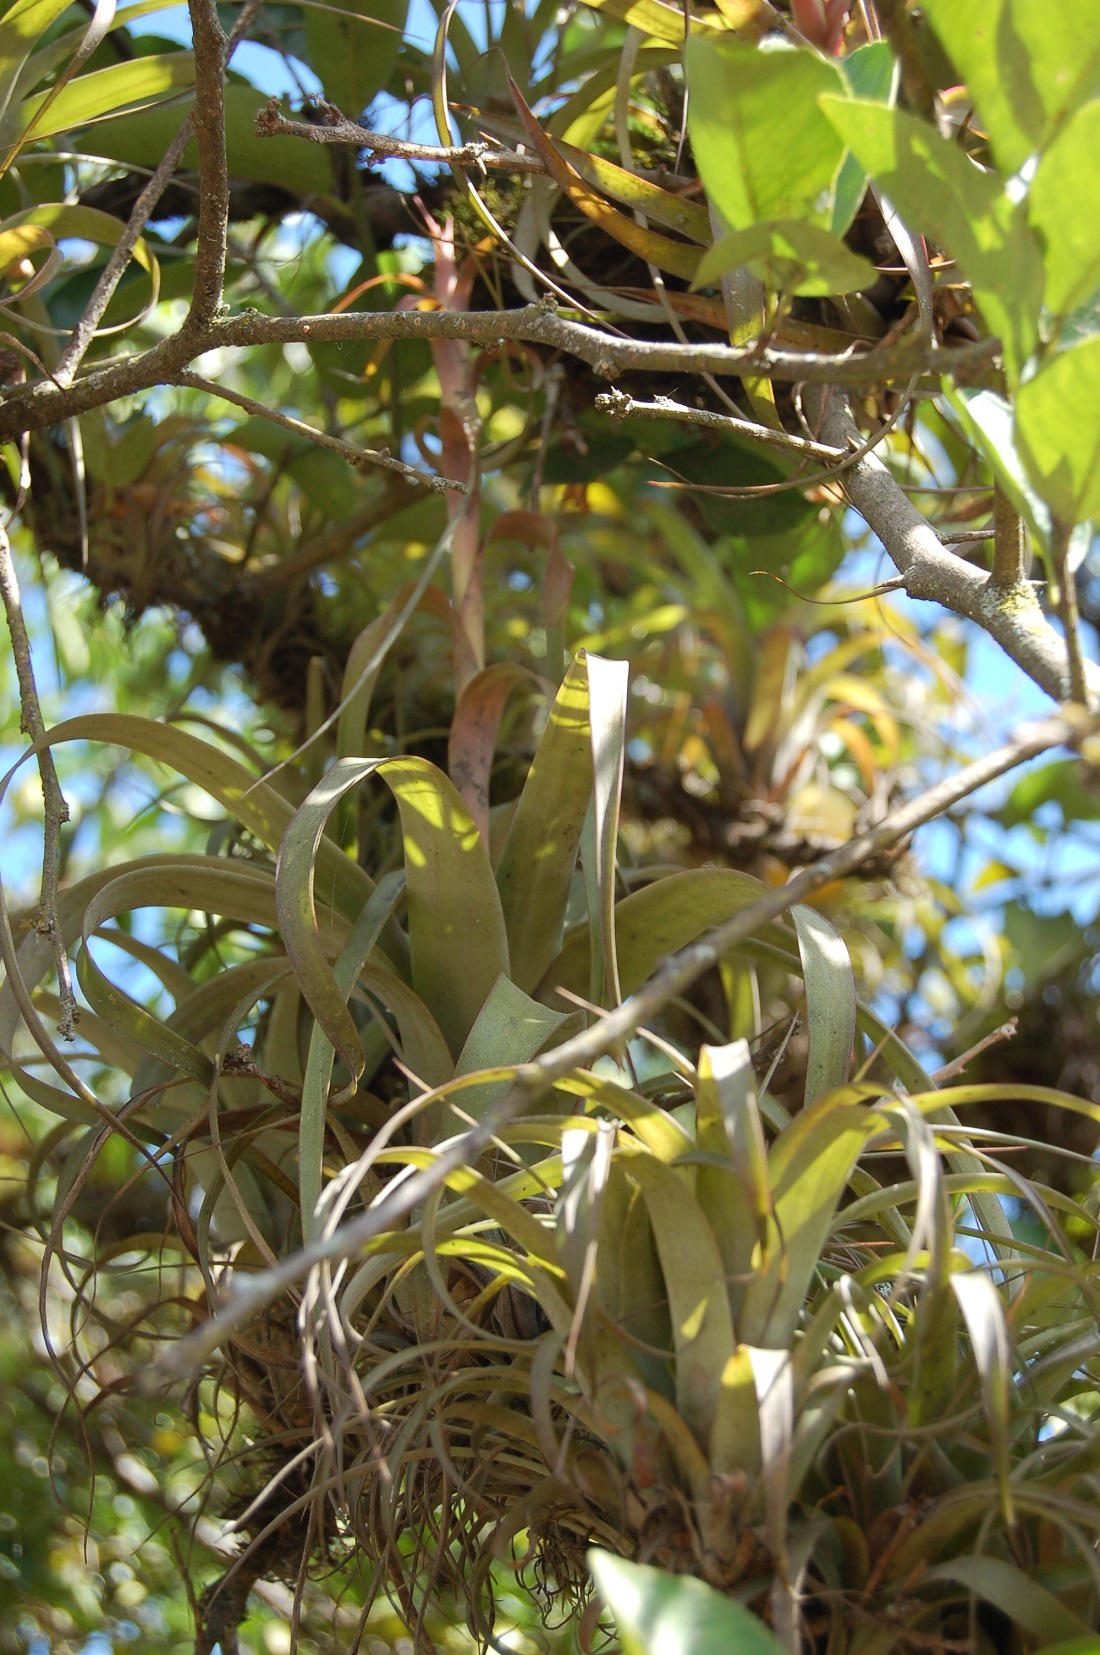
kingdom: Plantae
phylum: Tracheophyta
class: Liliopsida
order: Poales
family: Bromeliaceae
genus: Tillandsia
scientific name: Tillandsia belloensis
